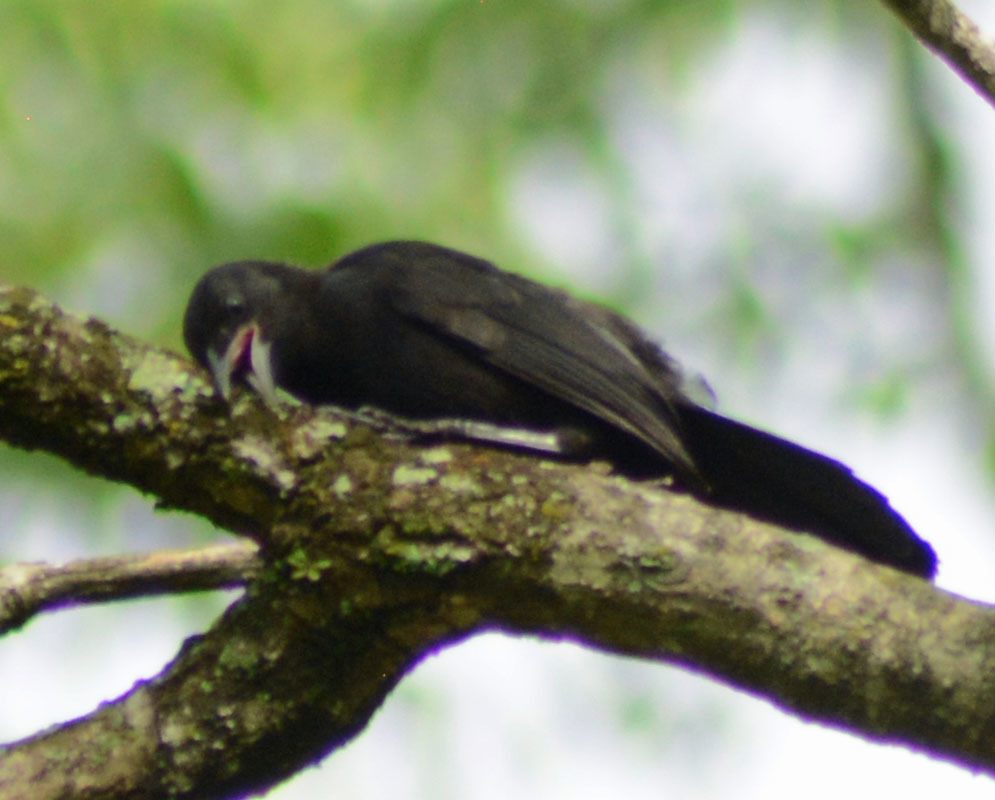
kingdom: Animalia
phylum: Chordata
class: Aves
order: Passeriformes
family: Icteridae
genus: Dives
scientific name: Dives dives
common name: Melodious blackbird
